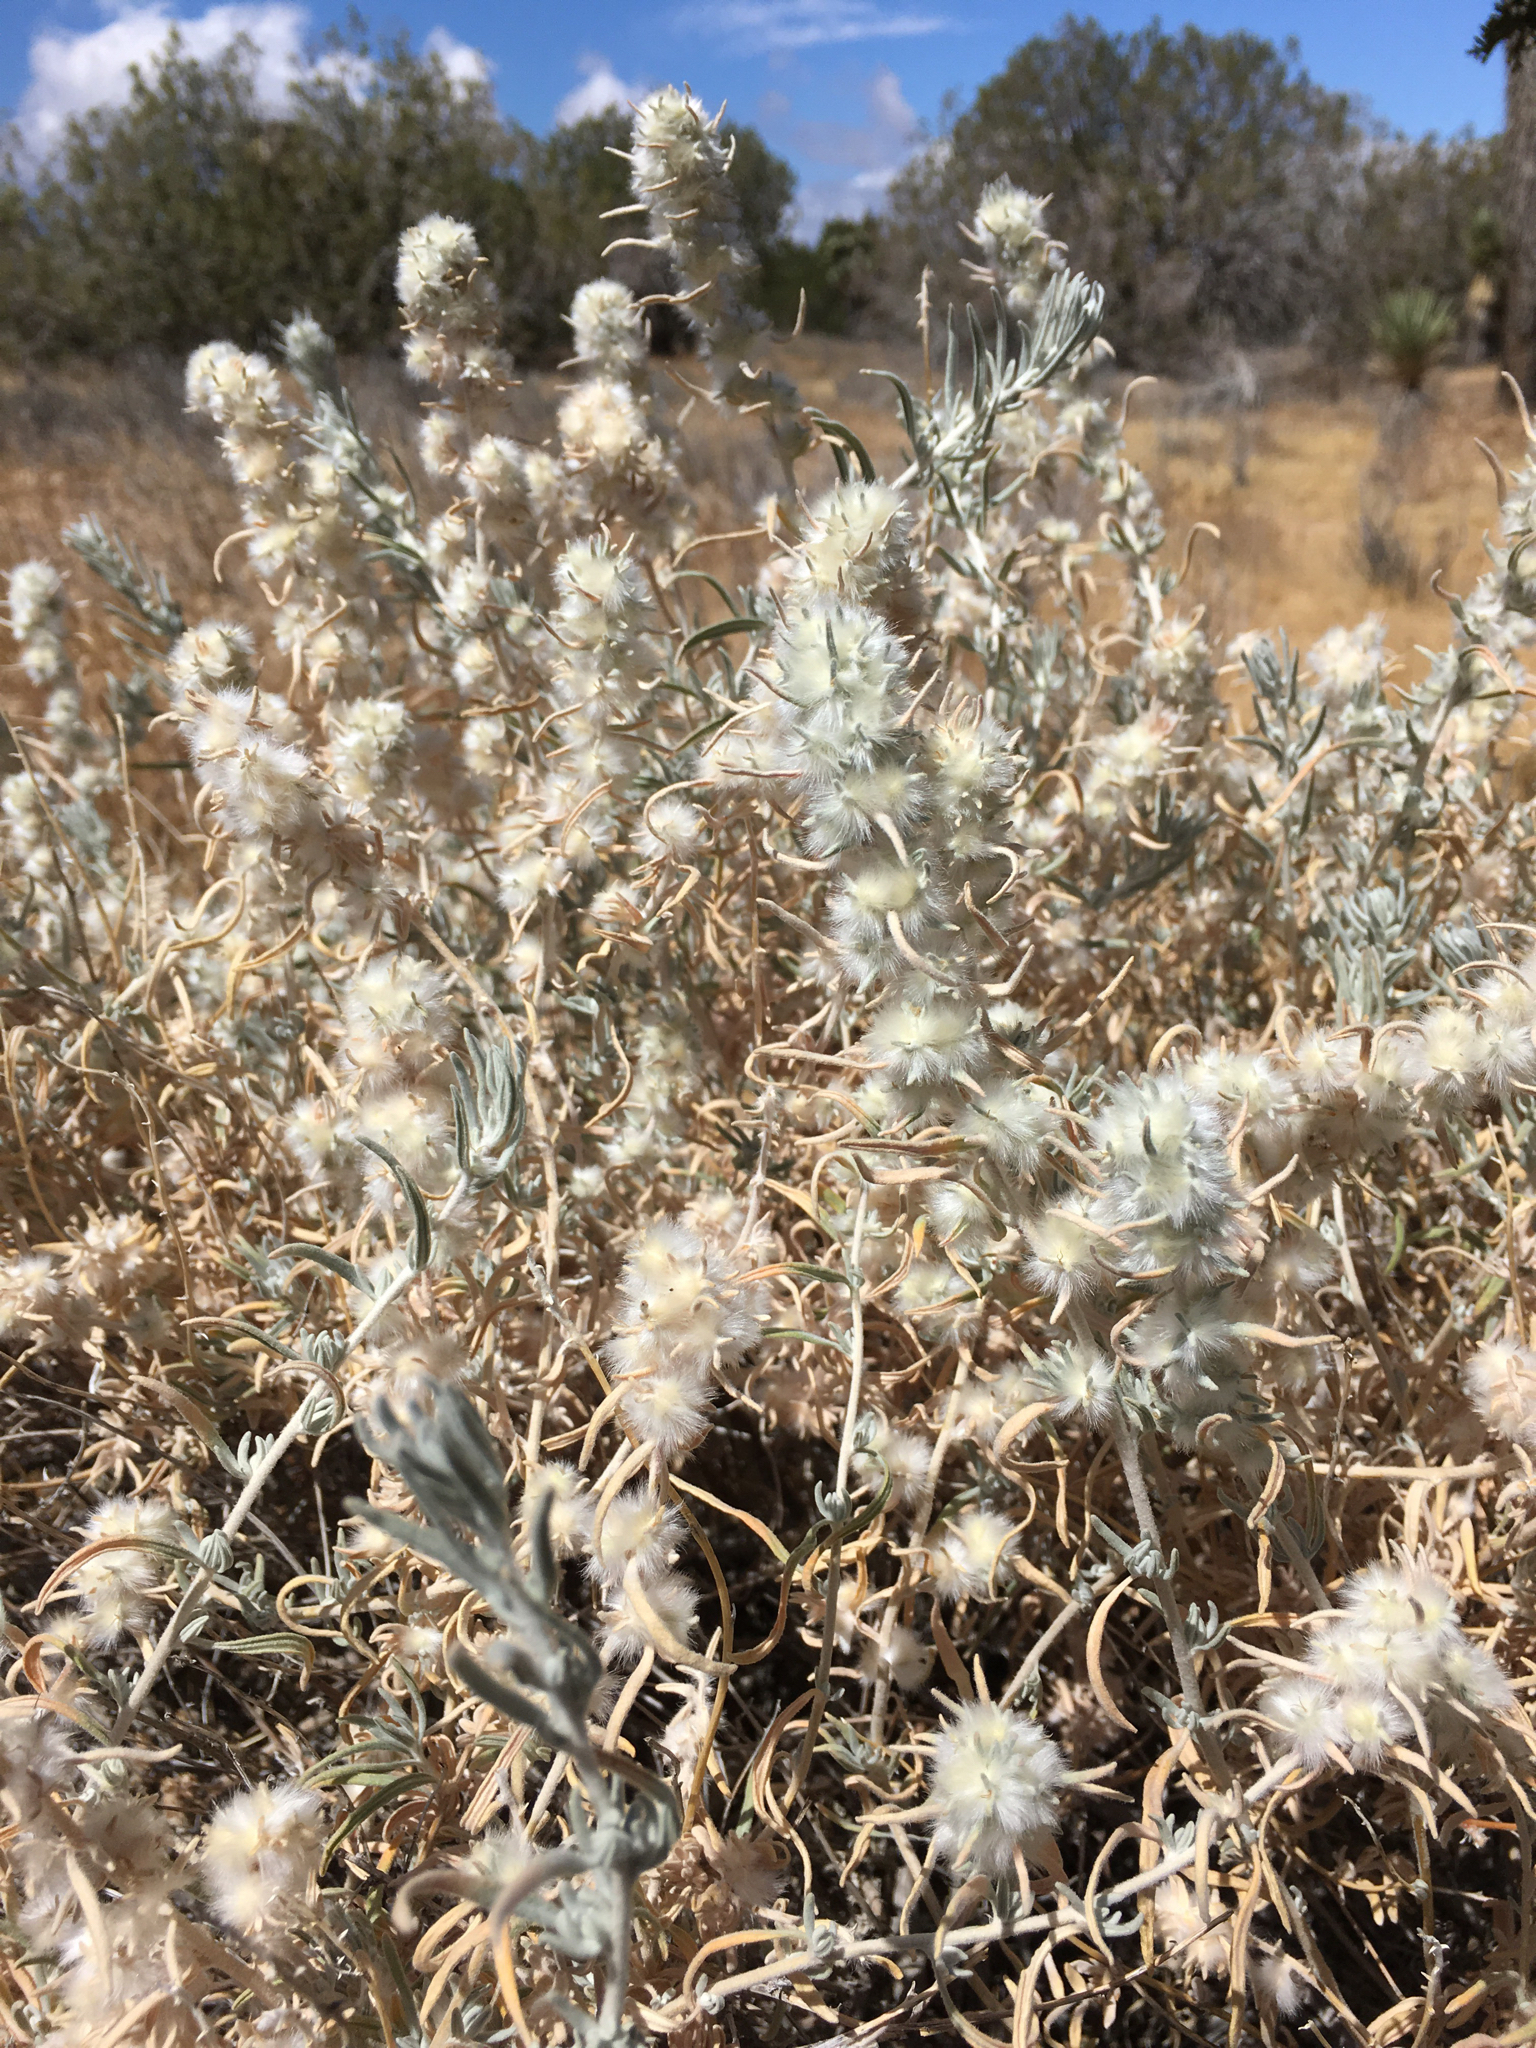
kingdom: Plantae
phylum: Tracheophyta
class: Magnoliopsida
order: Caryophyllales
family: Amaranthaceae
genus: Krascheninnikovia
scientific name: Krascheninnikovia lanata
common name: Winterfat
